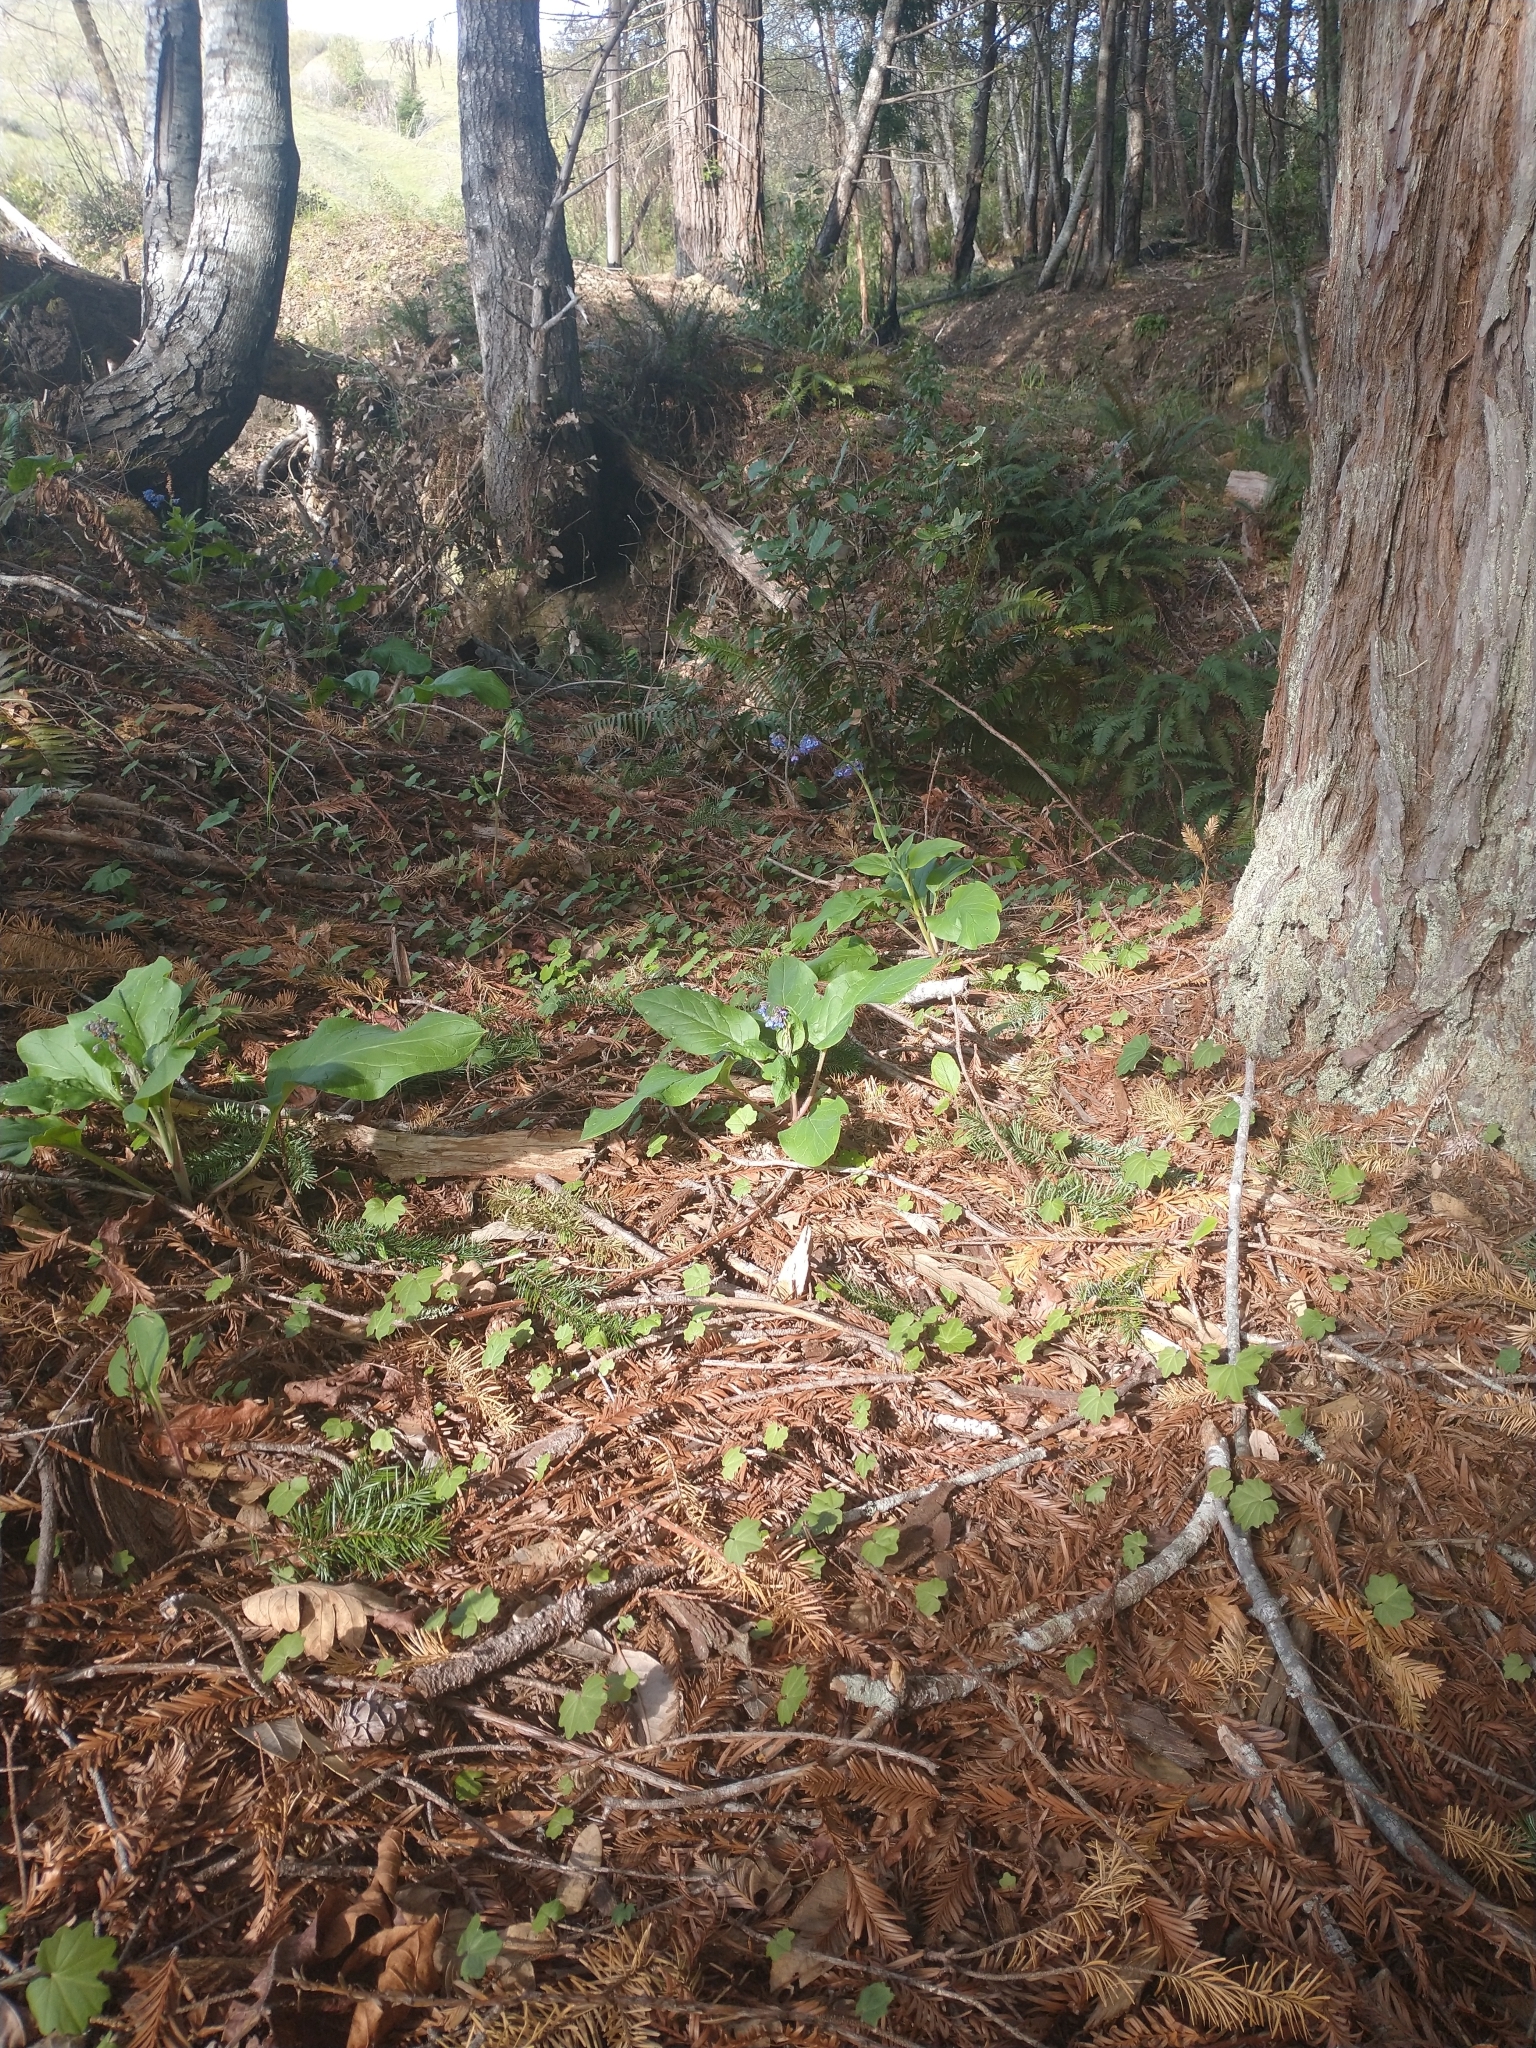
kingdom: Plantae
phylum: Tracheophyta
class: Magnoliopsida
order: Boraginales
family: Boraginaceae
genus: Adelinia
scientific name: Adelinia grande
